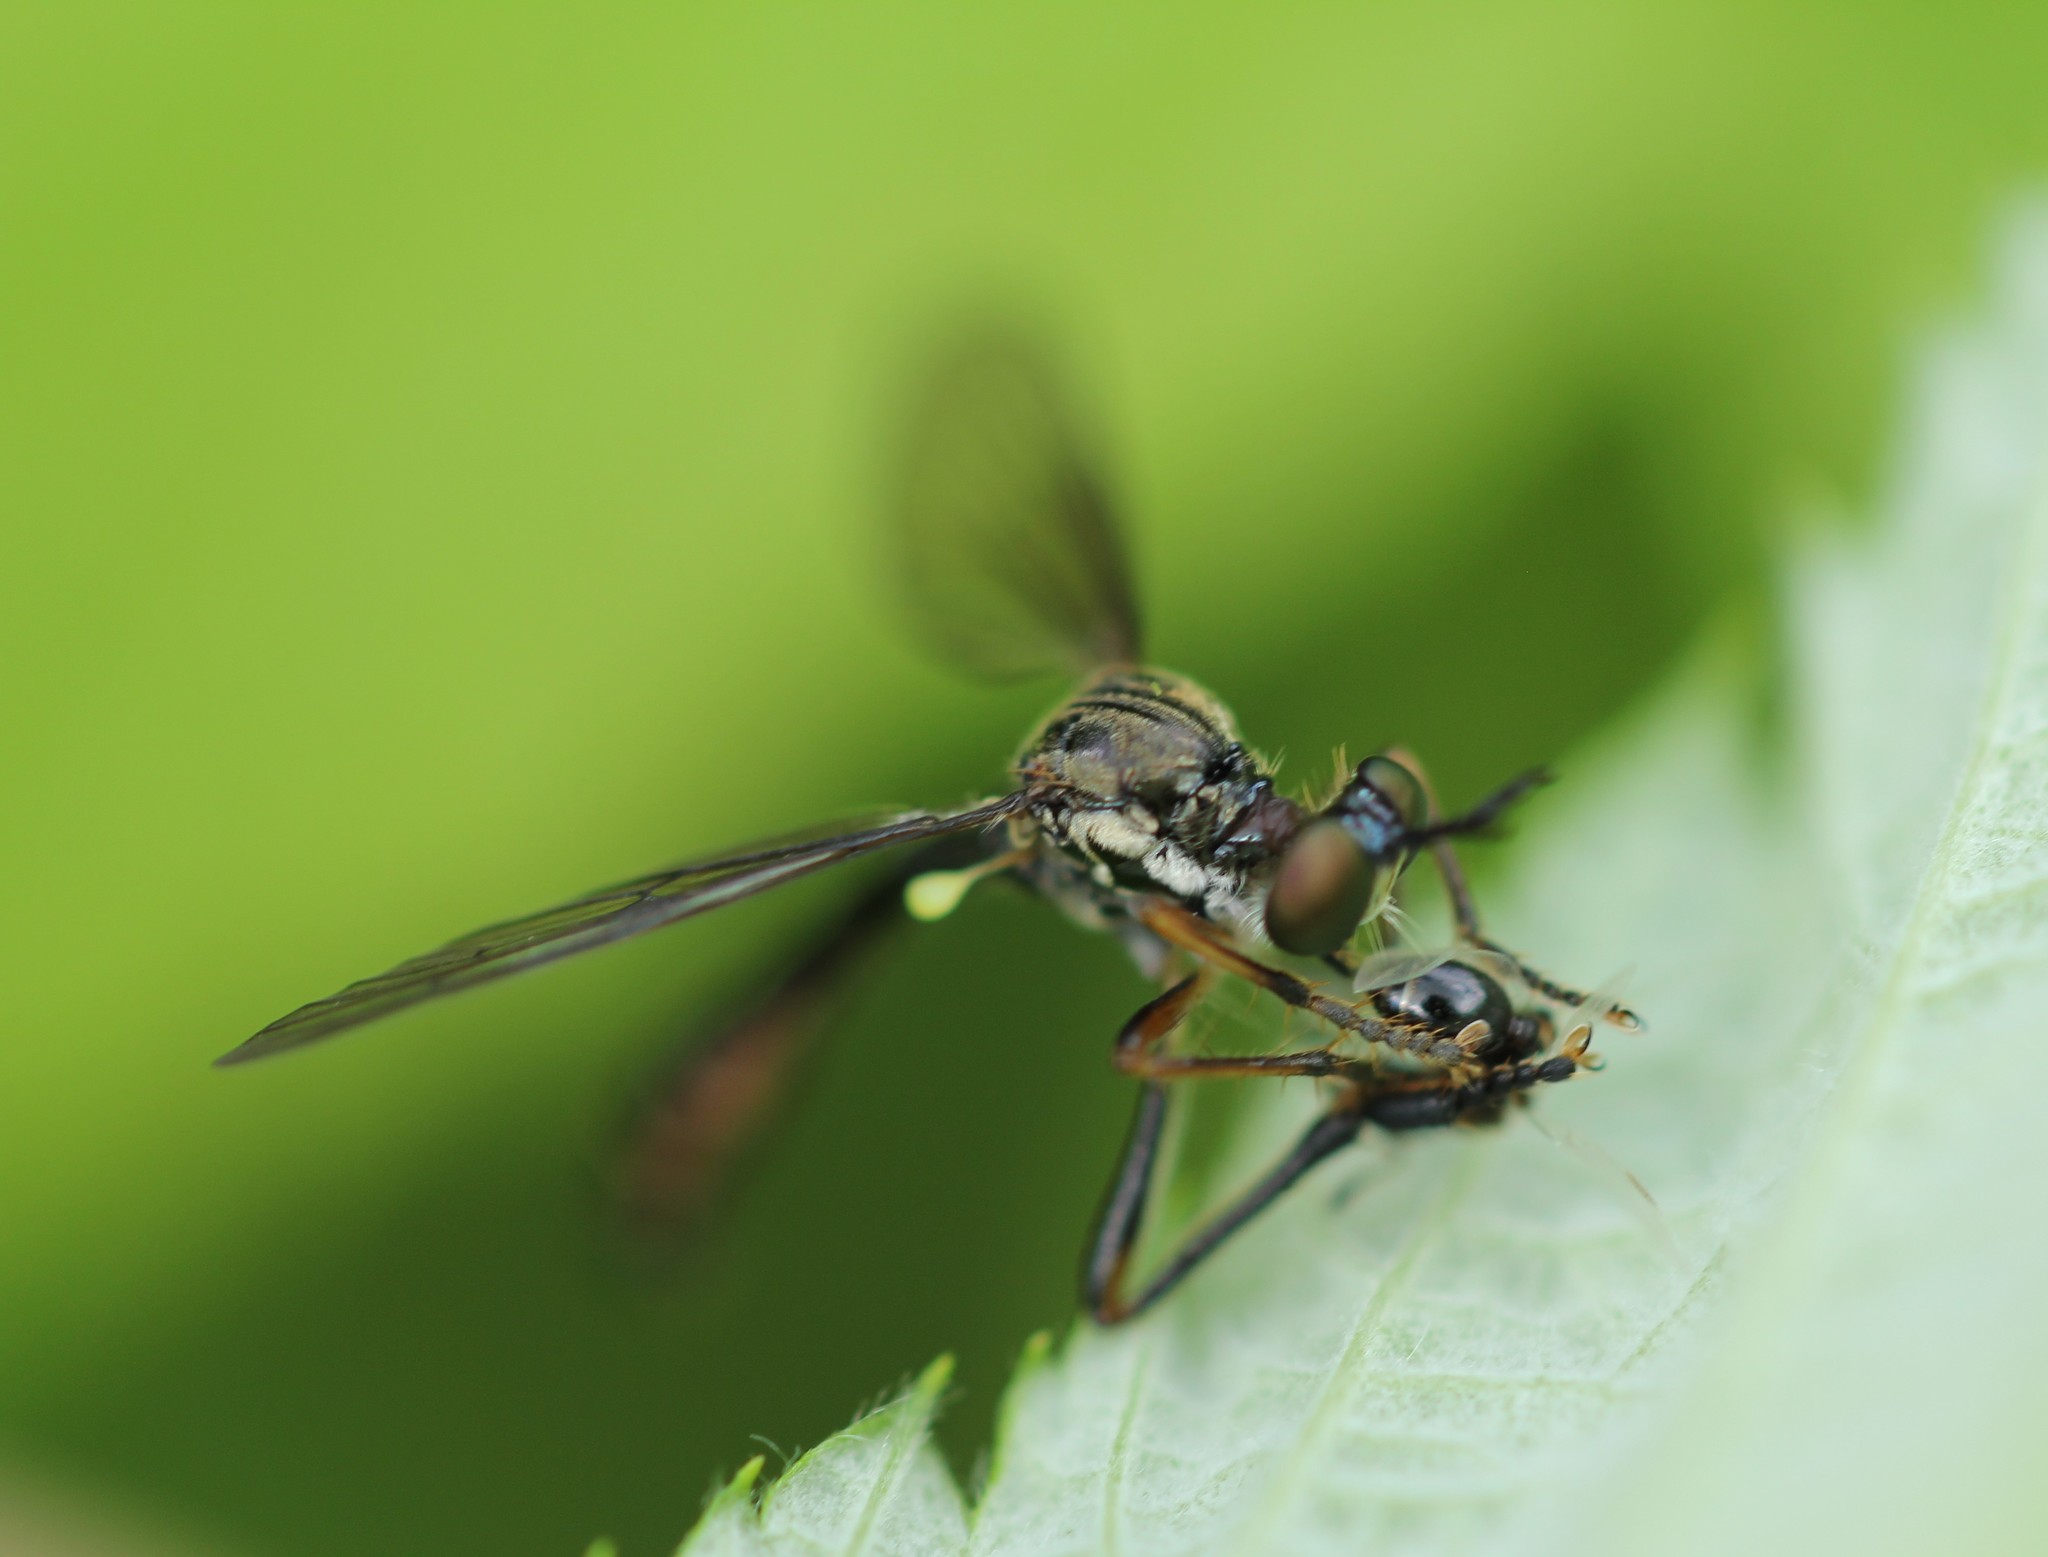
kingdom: Animalia
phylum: Arthropoda
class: Insecta
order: Diptera
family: Asilidae
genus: Dioctria
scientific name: Dioctria hyalipennis
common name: Stripe-legged robberfly
